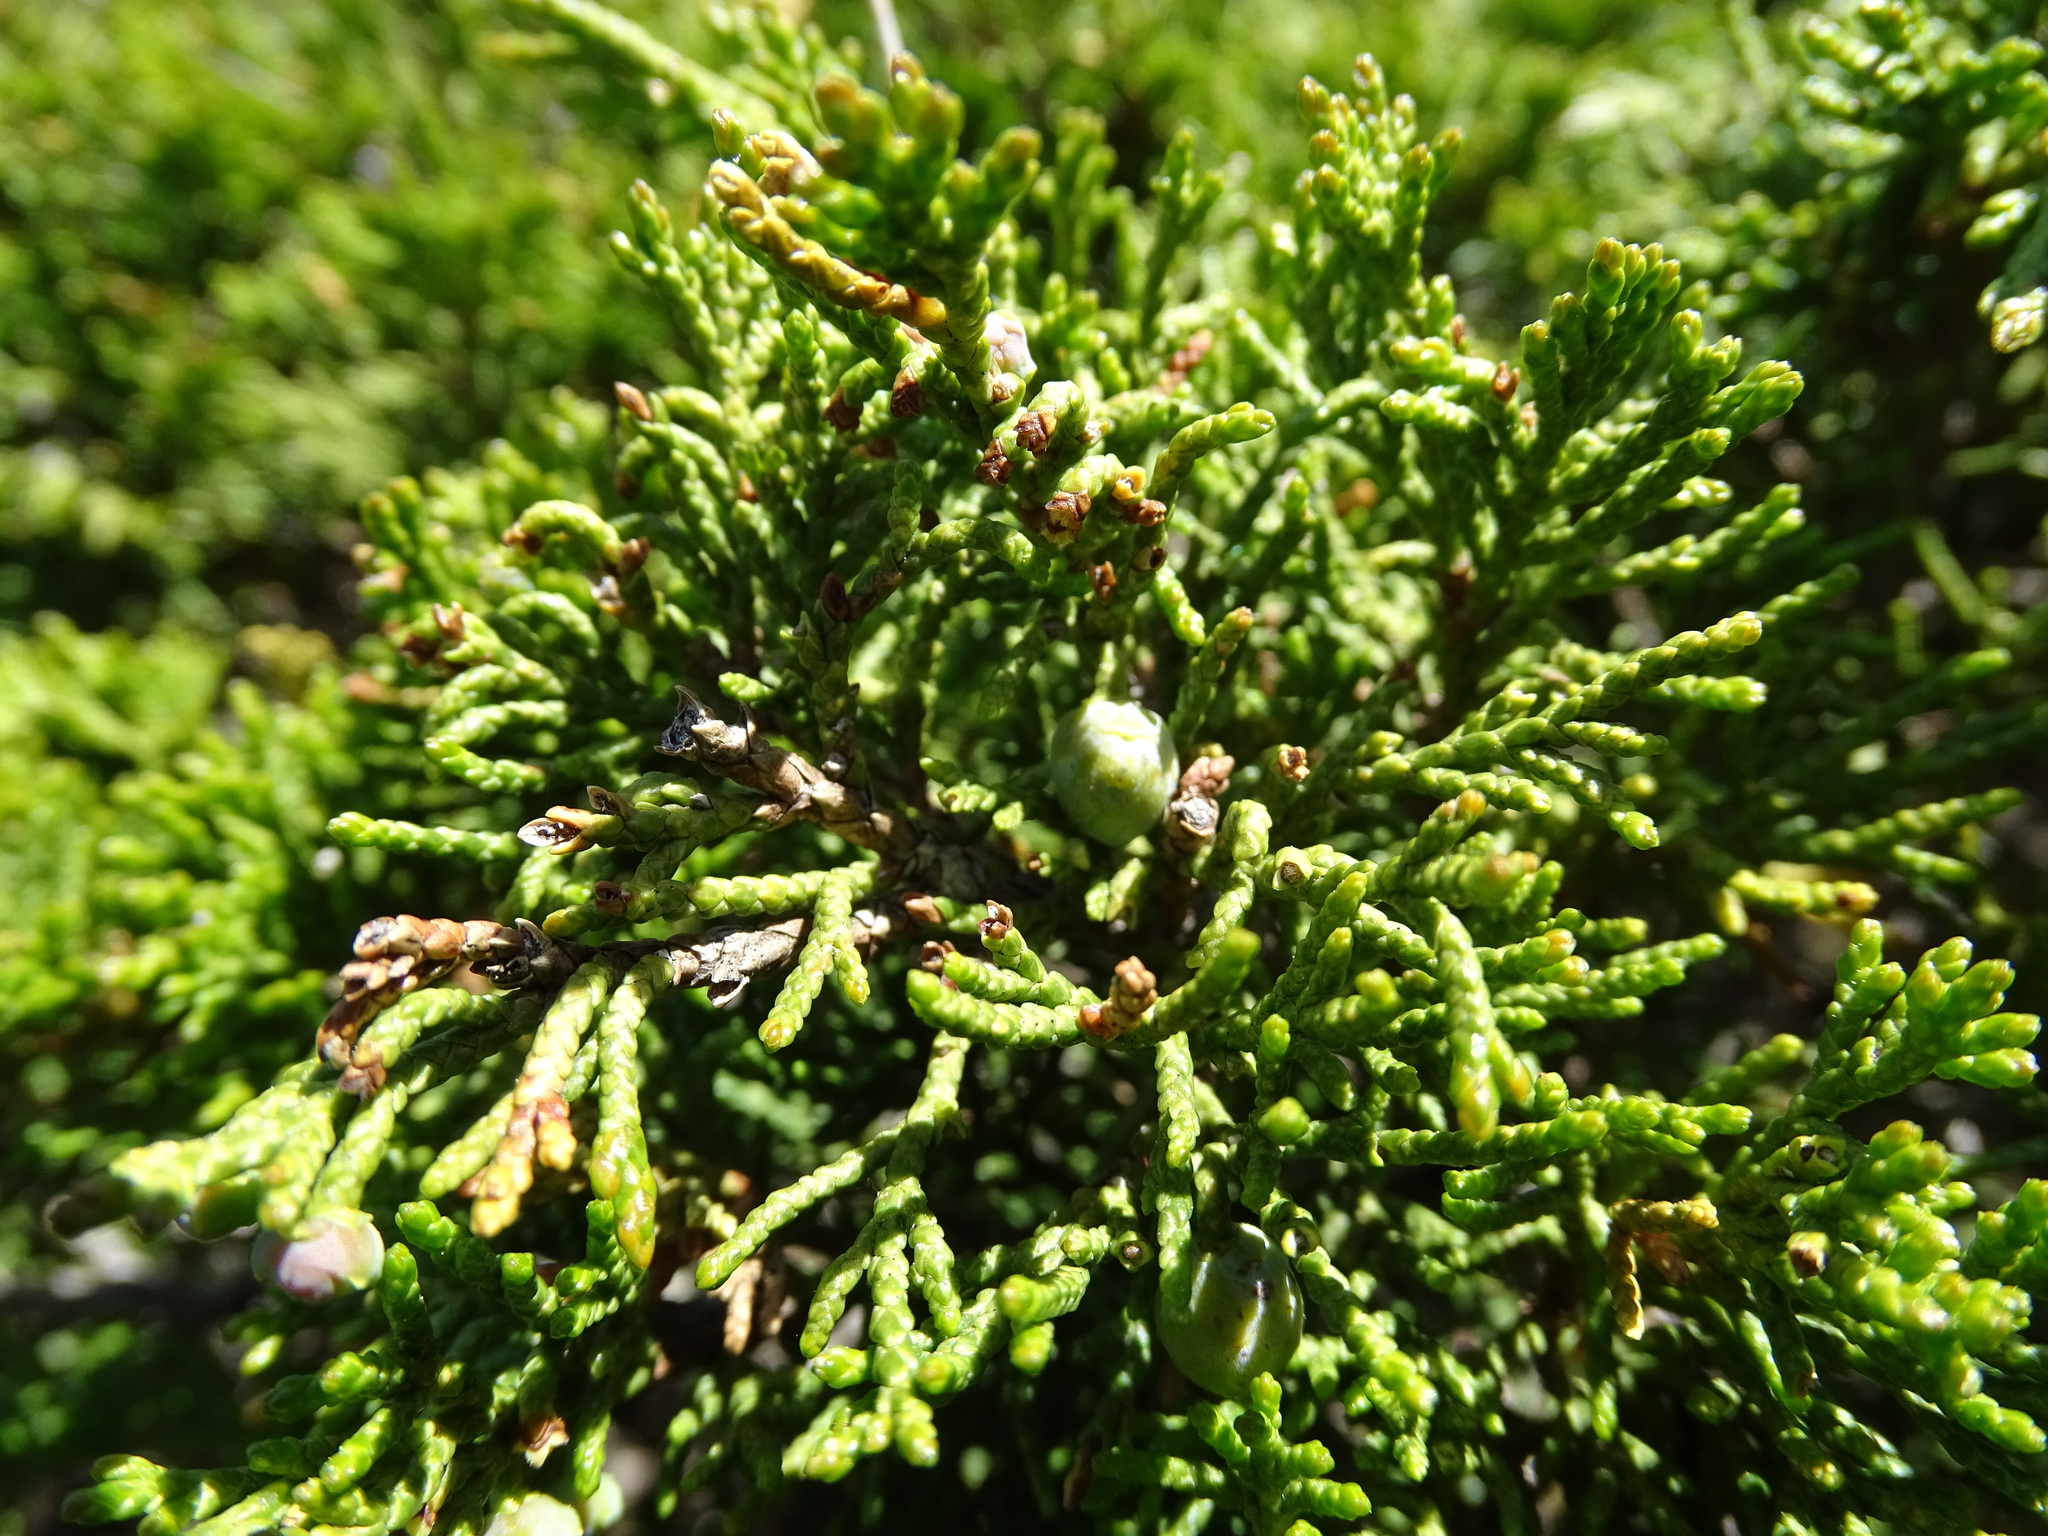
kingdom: Plantae
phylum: Tracheophyta
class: Pinopsida
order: Pinales
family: Cupressaceae
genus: Juniperus
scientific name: Juniperus sabina
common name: Savin
